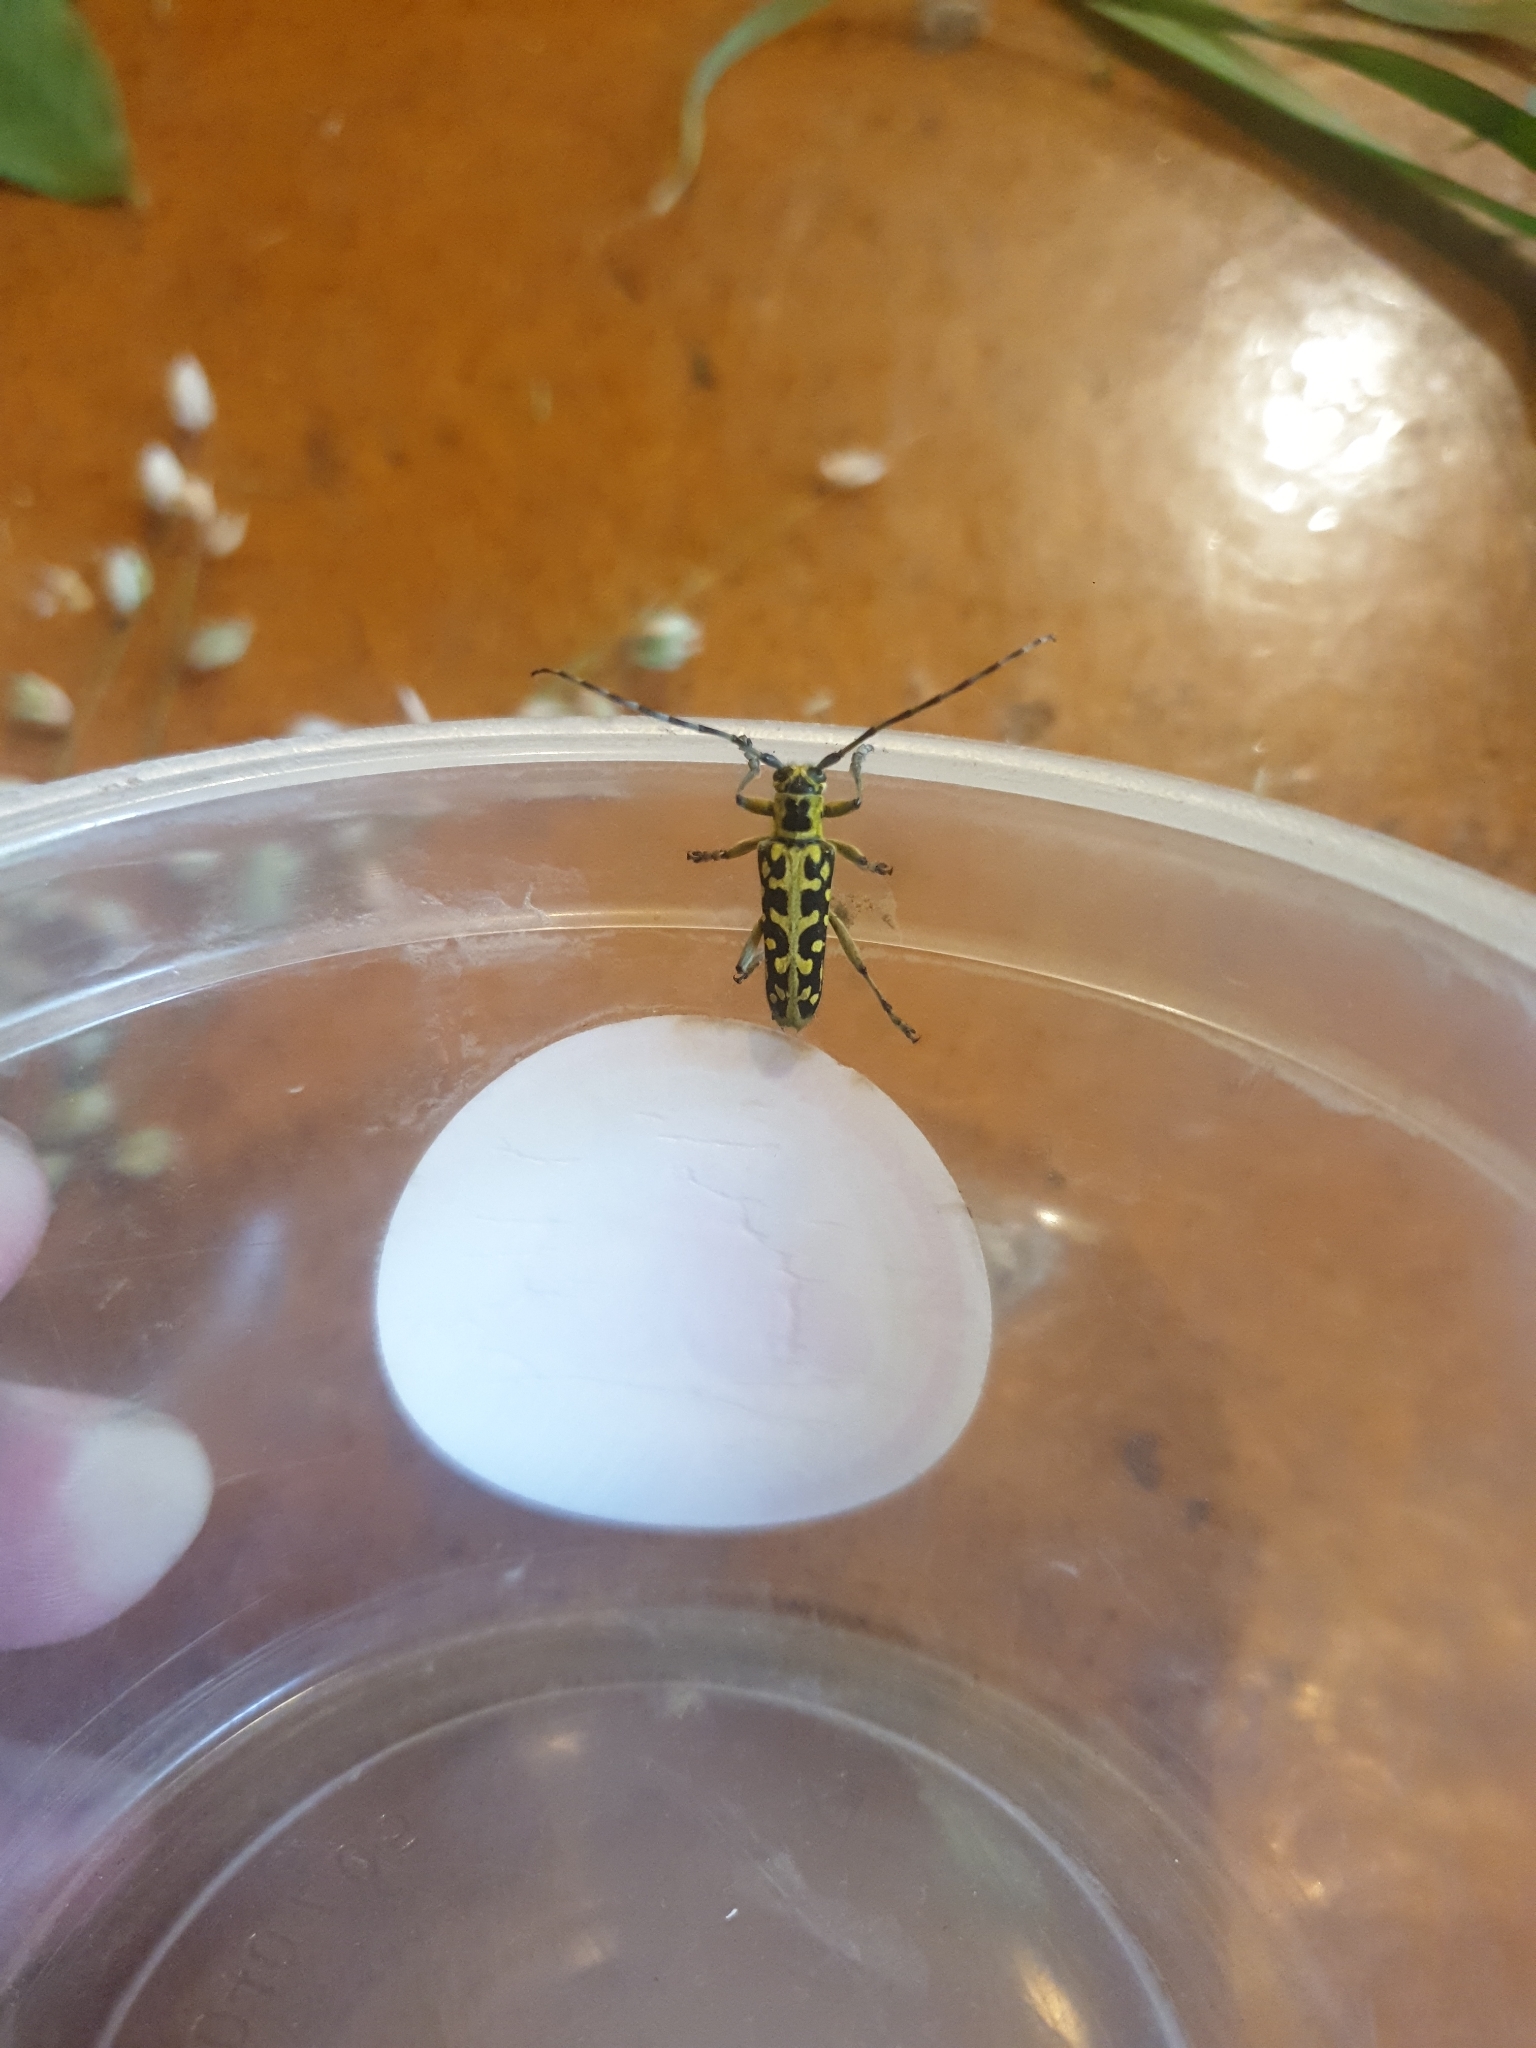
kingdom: Animalia
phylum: Arthropoda
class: Insecta
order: Coleoptera
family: Cerambycidae
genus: Saperda
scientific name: Saperda scalaris
